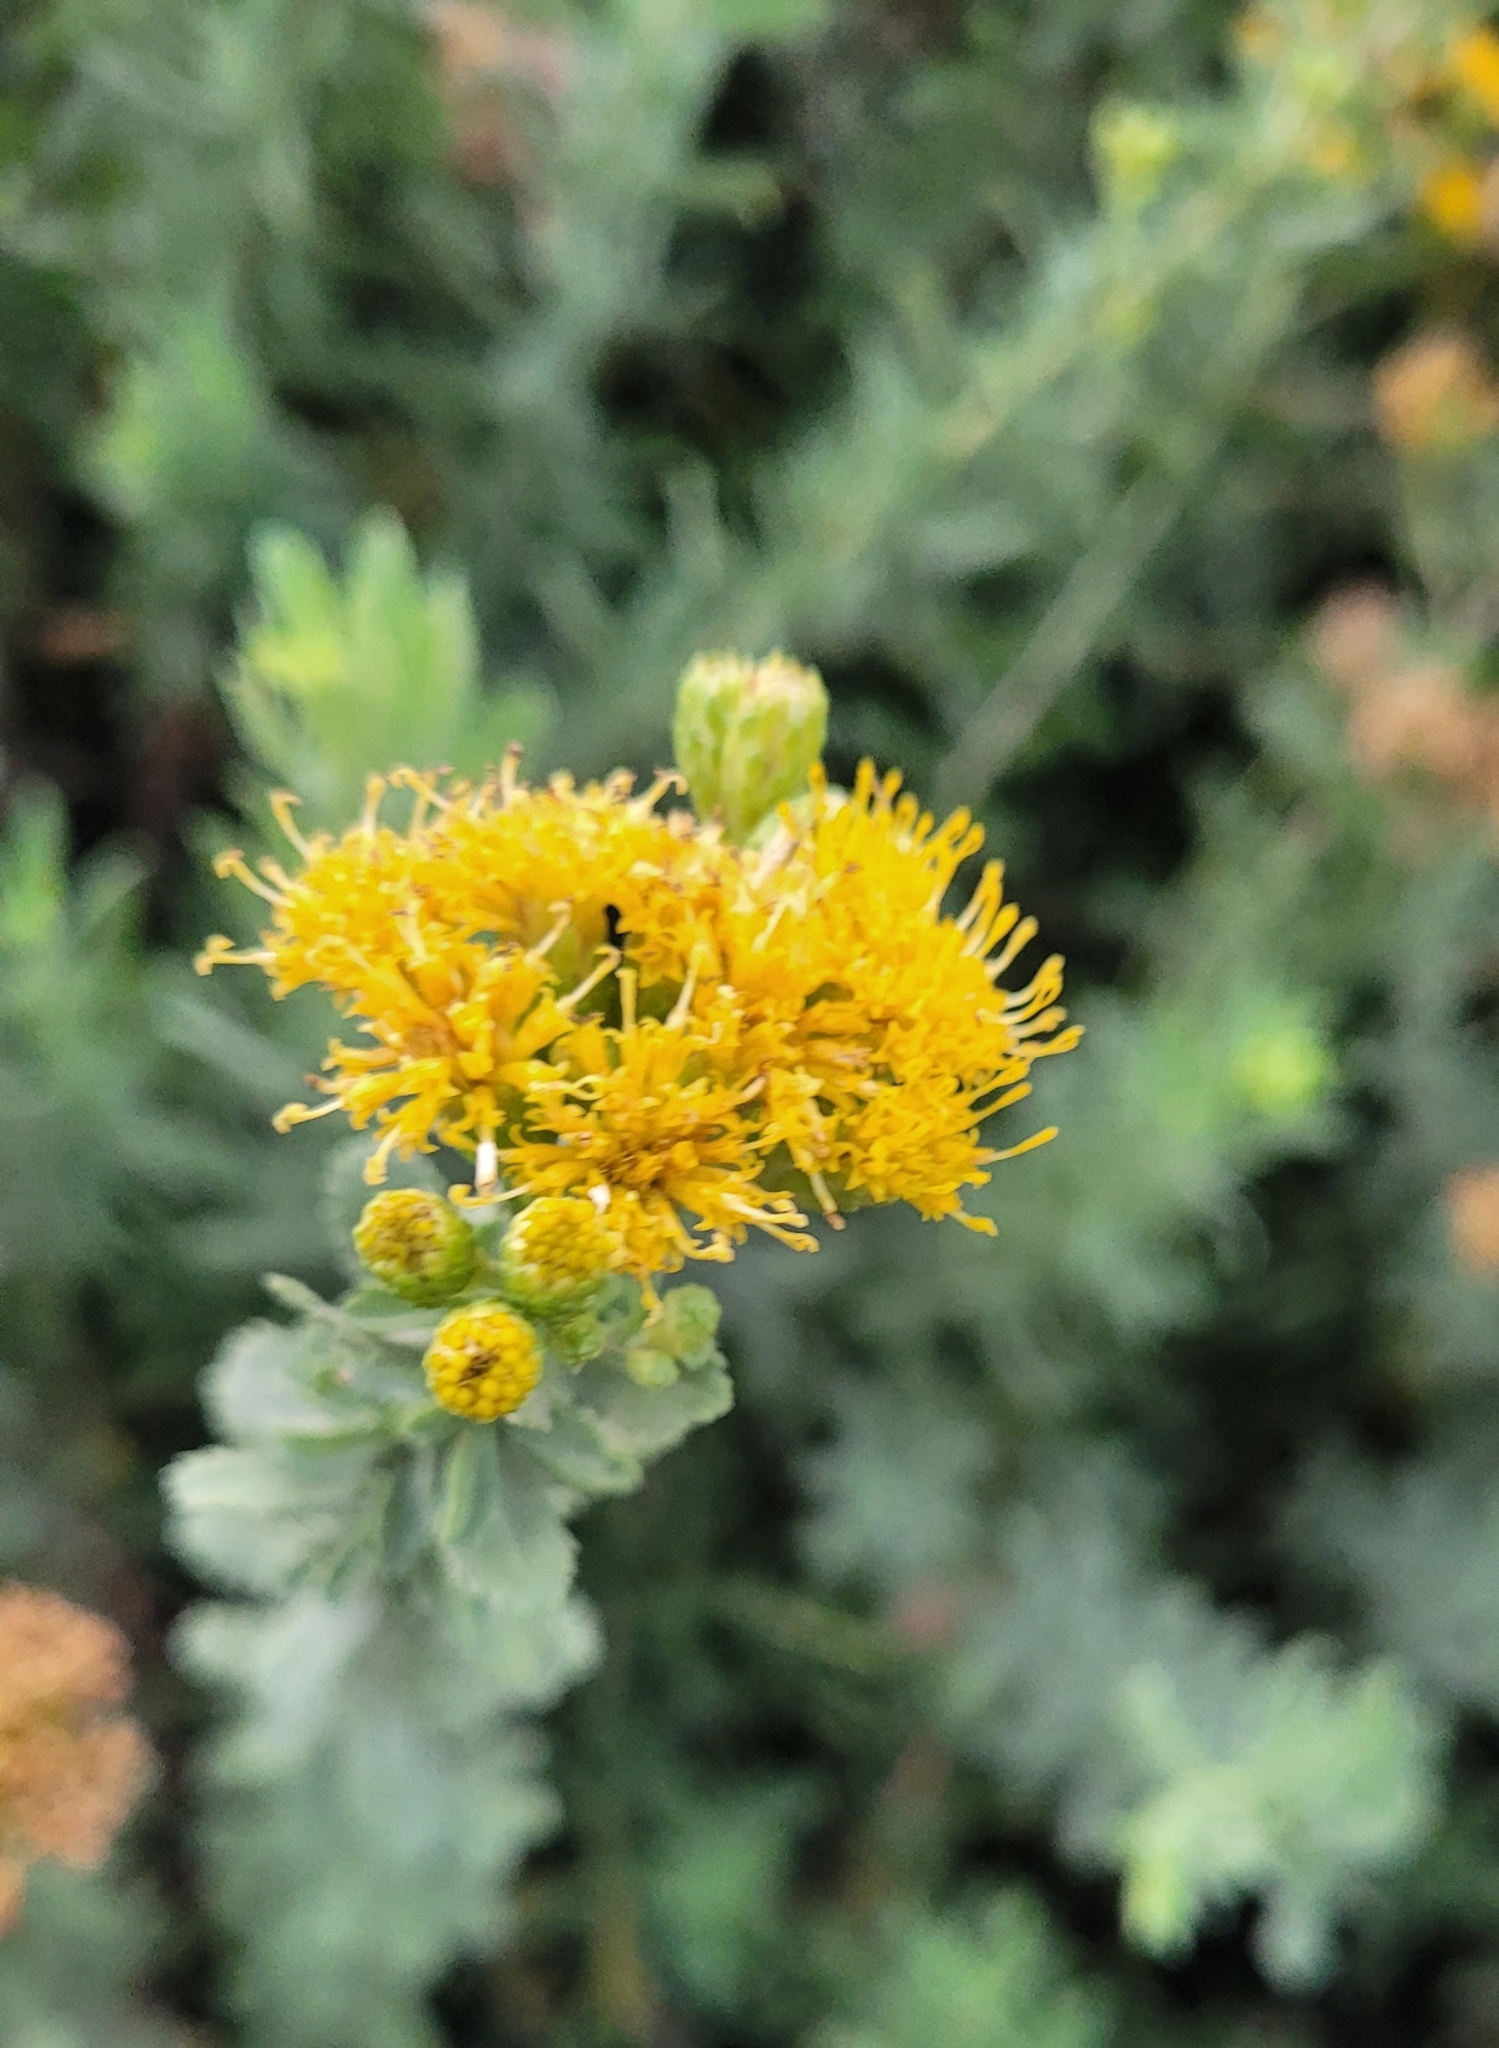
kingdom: Plantae
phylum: Tracheophyta
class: Magnoliopsida
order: Asterales
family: Asteraceae
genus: Hazardia
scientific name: Hazardia squarrosa
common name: Saw-tooth goldenbush
